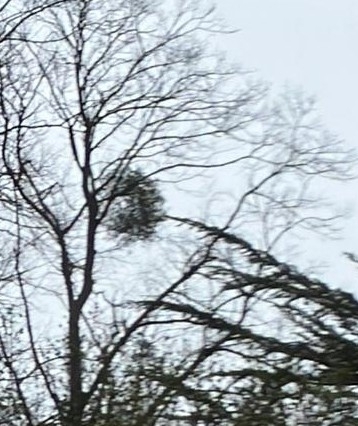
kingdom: Plantae
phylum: Tracheophyta
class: Magnoliopsida
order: Santalales
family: Viscaceae
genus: Viscum
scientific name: Viscum album
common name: Mistletoe
